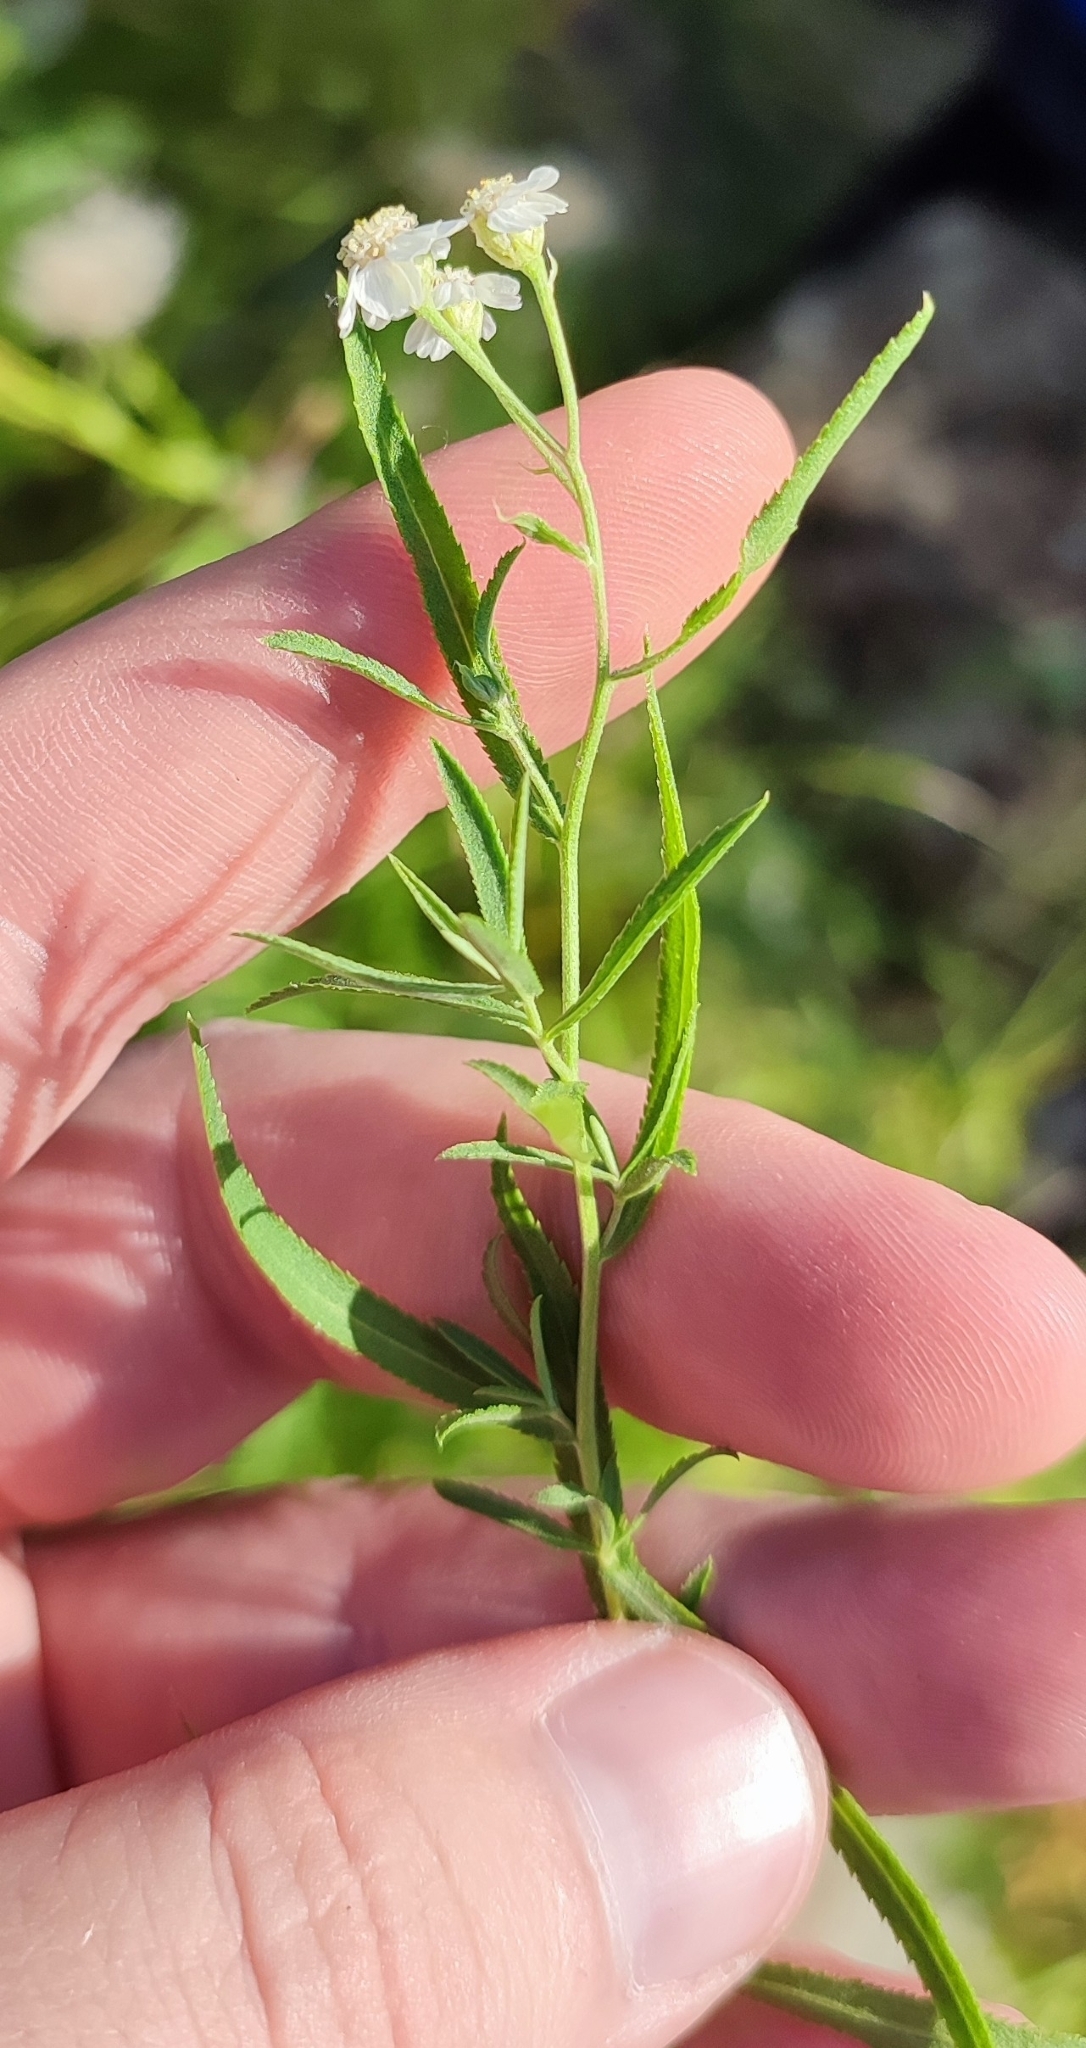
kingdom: Plantae
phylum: Tracheophyta
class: Magnoliopsida
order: Asterales
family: Asteraceae
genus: Achillea
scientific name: Achillea salicifolia
